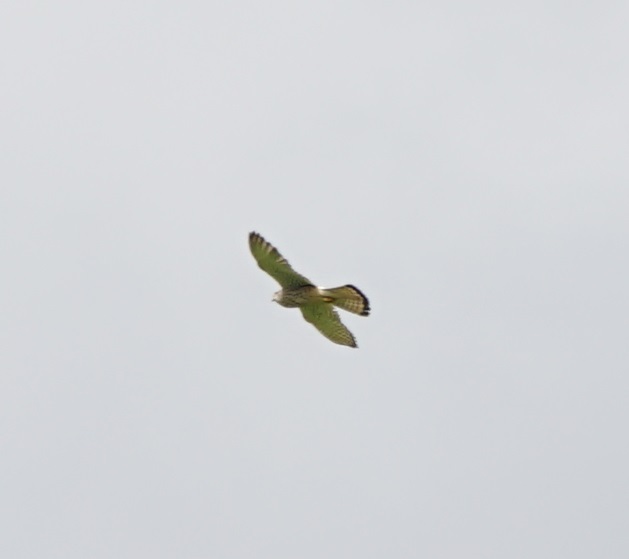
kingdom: Animalia
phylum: Chordata
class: Aves
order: Falconiformes
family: Falconidae
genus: Falco
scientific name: Falco tinnunculus
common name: Common kestrel
